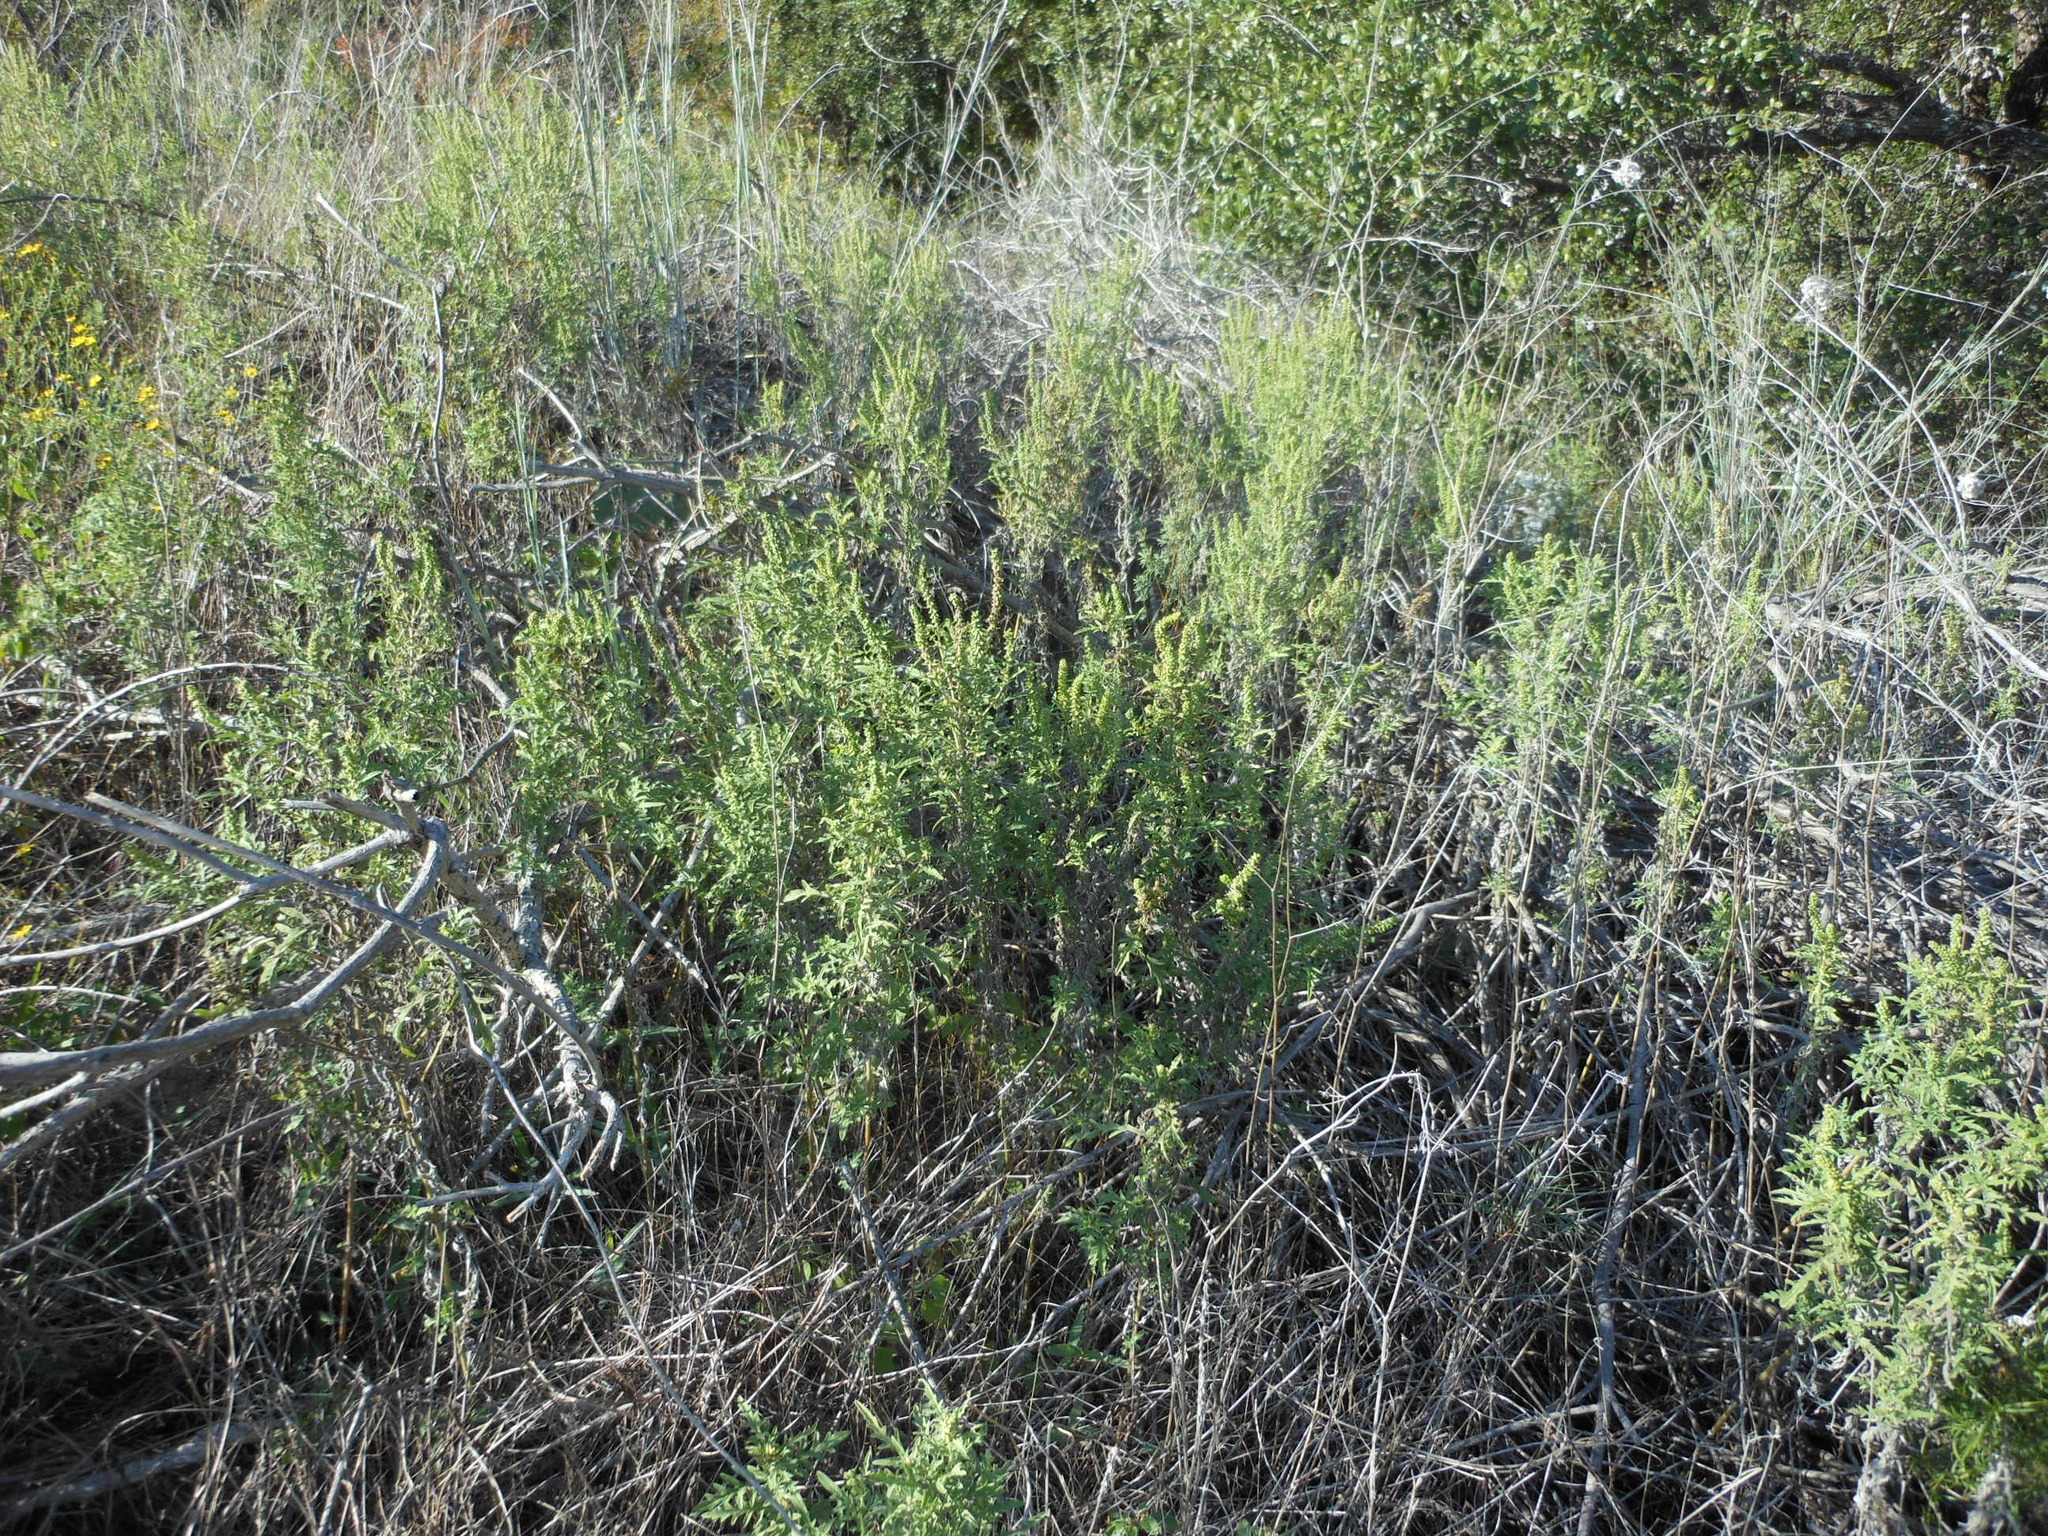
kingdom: Plantae
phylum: Tracheophyta
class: Magnoliopsida
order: Asterales
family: Asteraceae
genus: Ambrosia
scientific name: Ambrosia psilostachya
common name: Perennial ragweed
